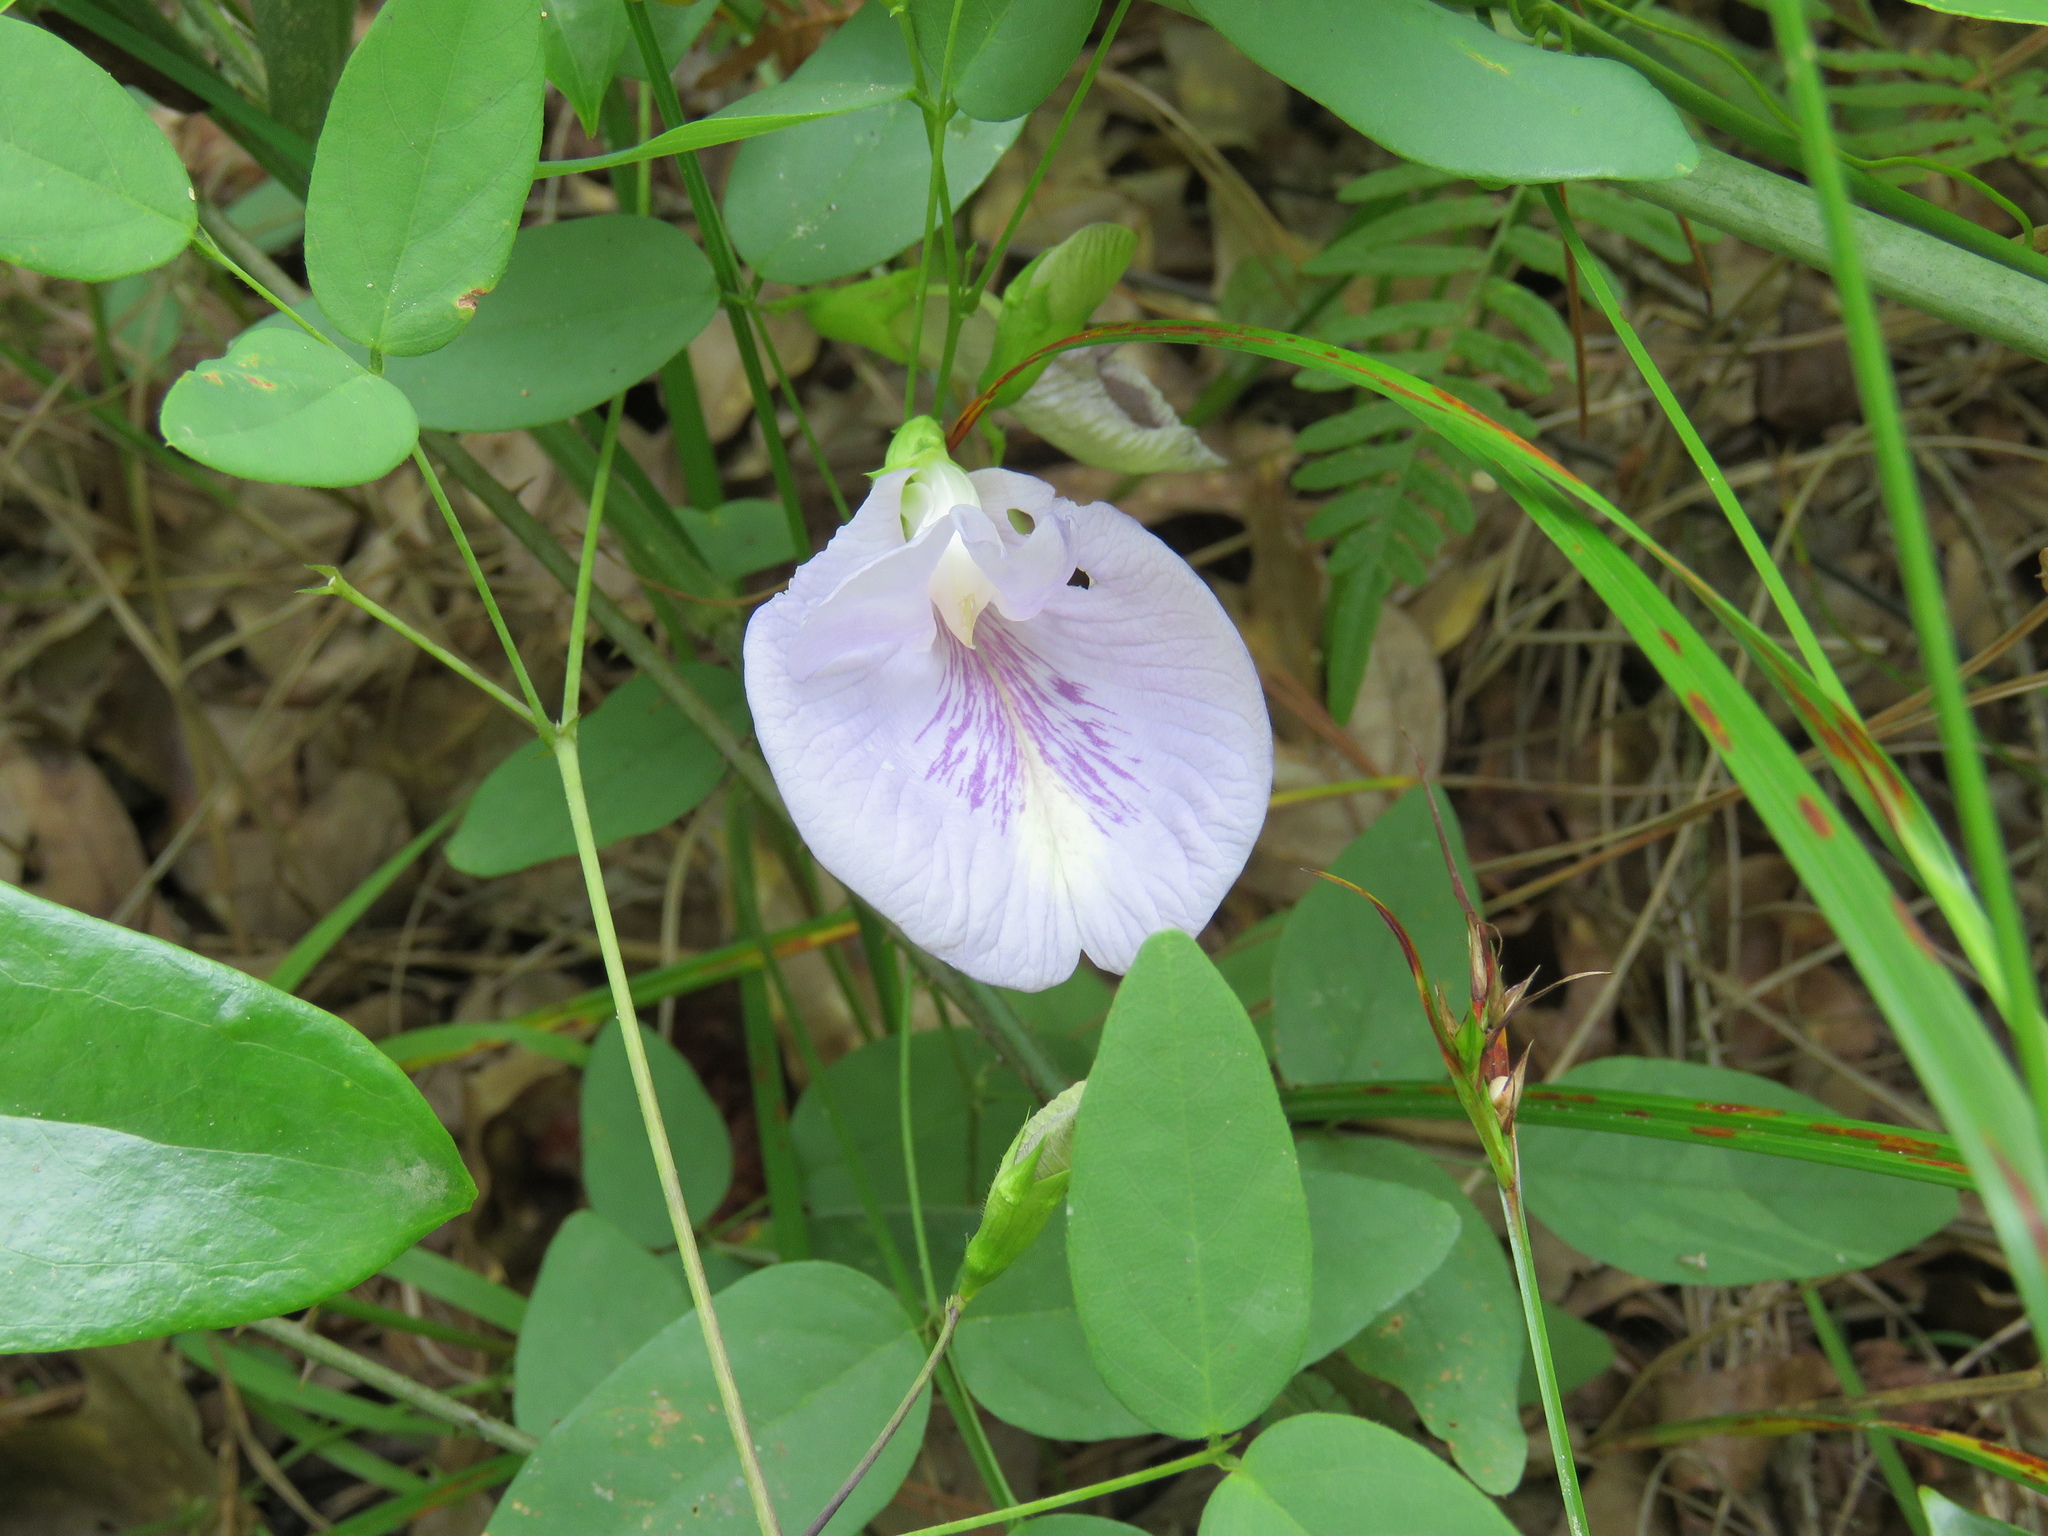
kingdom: Plantae
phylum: Tracheophyta
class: Magnoliopsida
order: Fabales
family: Fabaceae
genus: Clitoria
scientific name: Clitoria mariana
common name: Butterfly-pea
